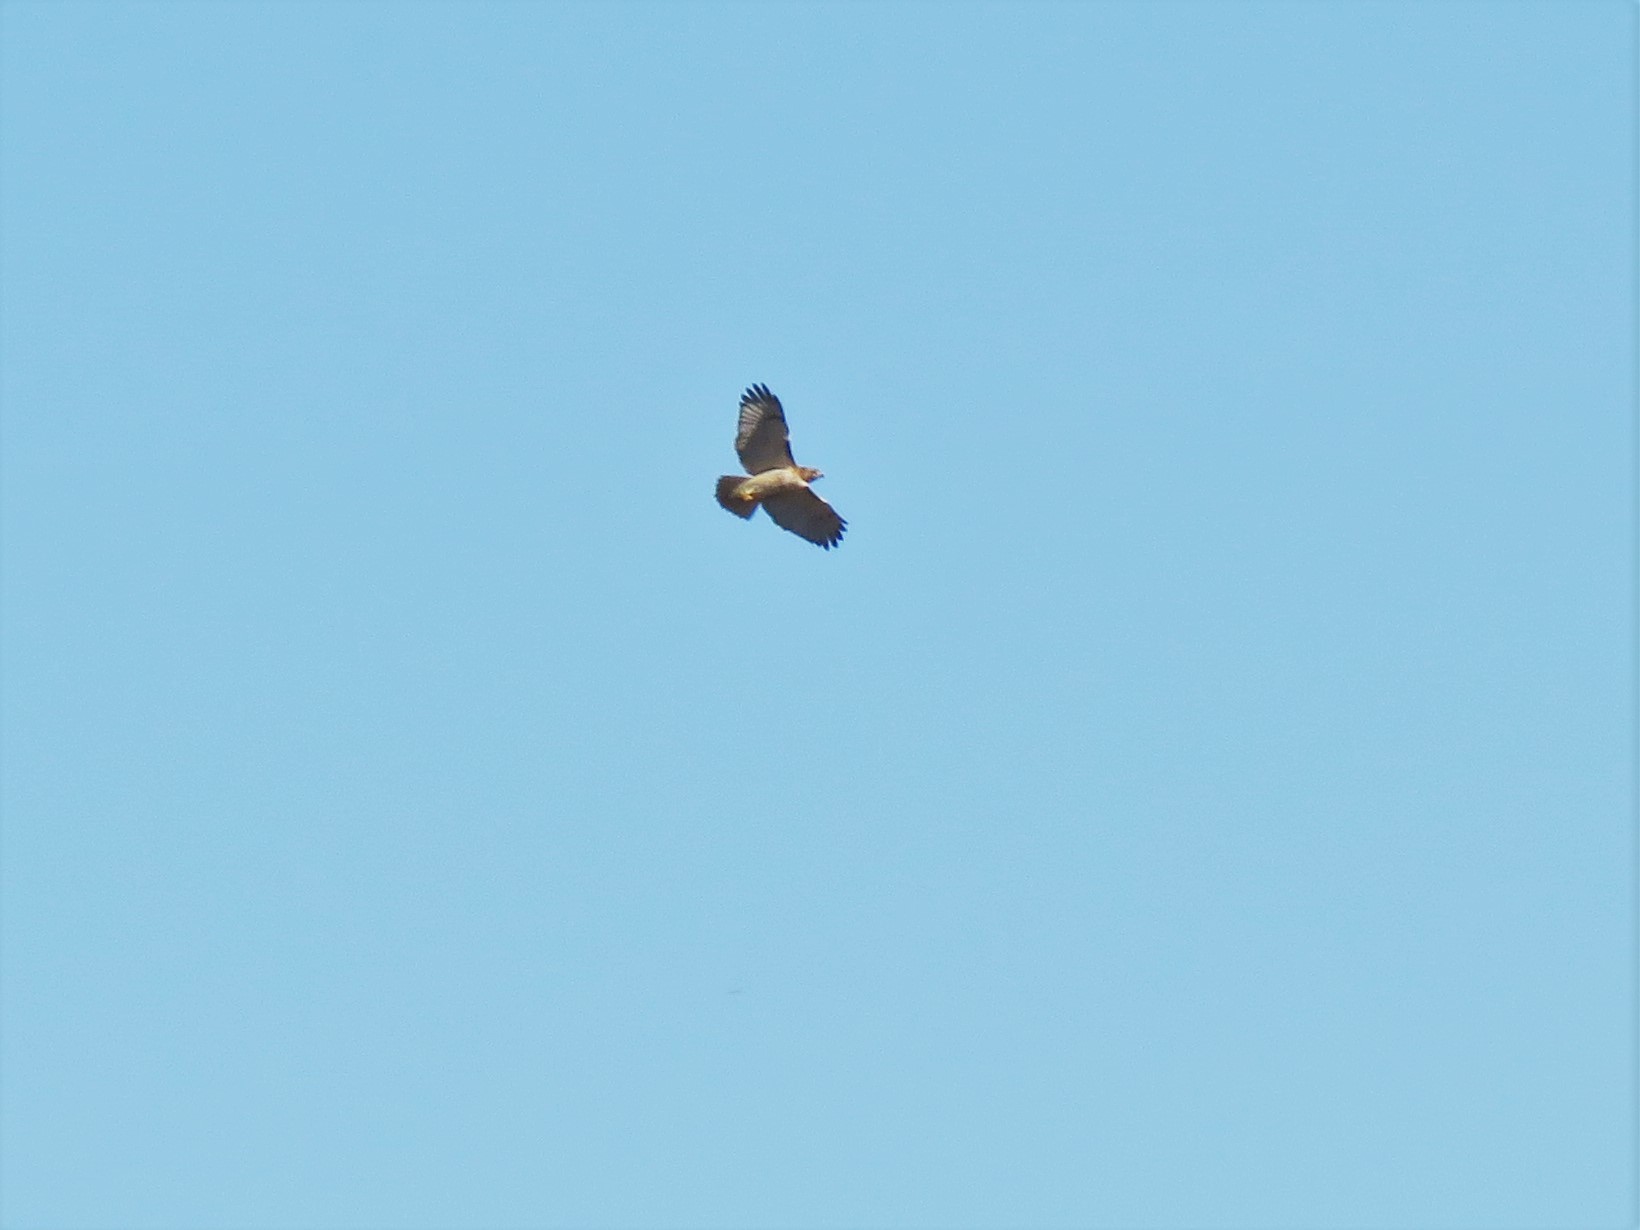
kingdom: Animalia
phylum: Chordata
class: Aves
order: Accipitriformes
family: Accipitridae
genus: Buteo
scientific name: Buteo jamaicensis
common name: Red-tailed hawk
